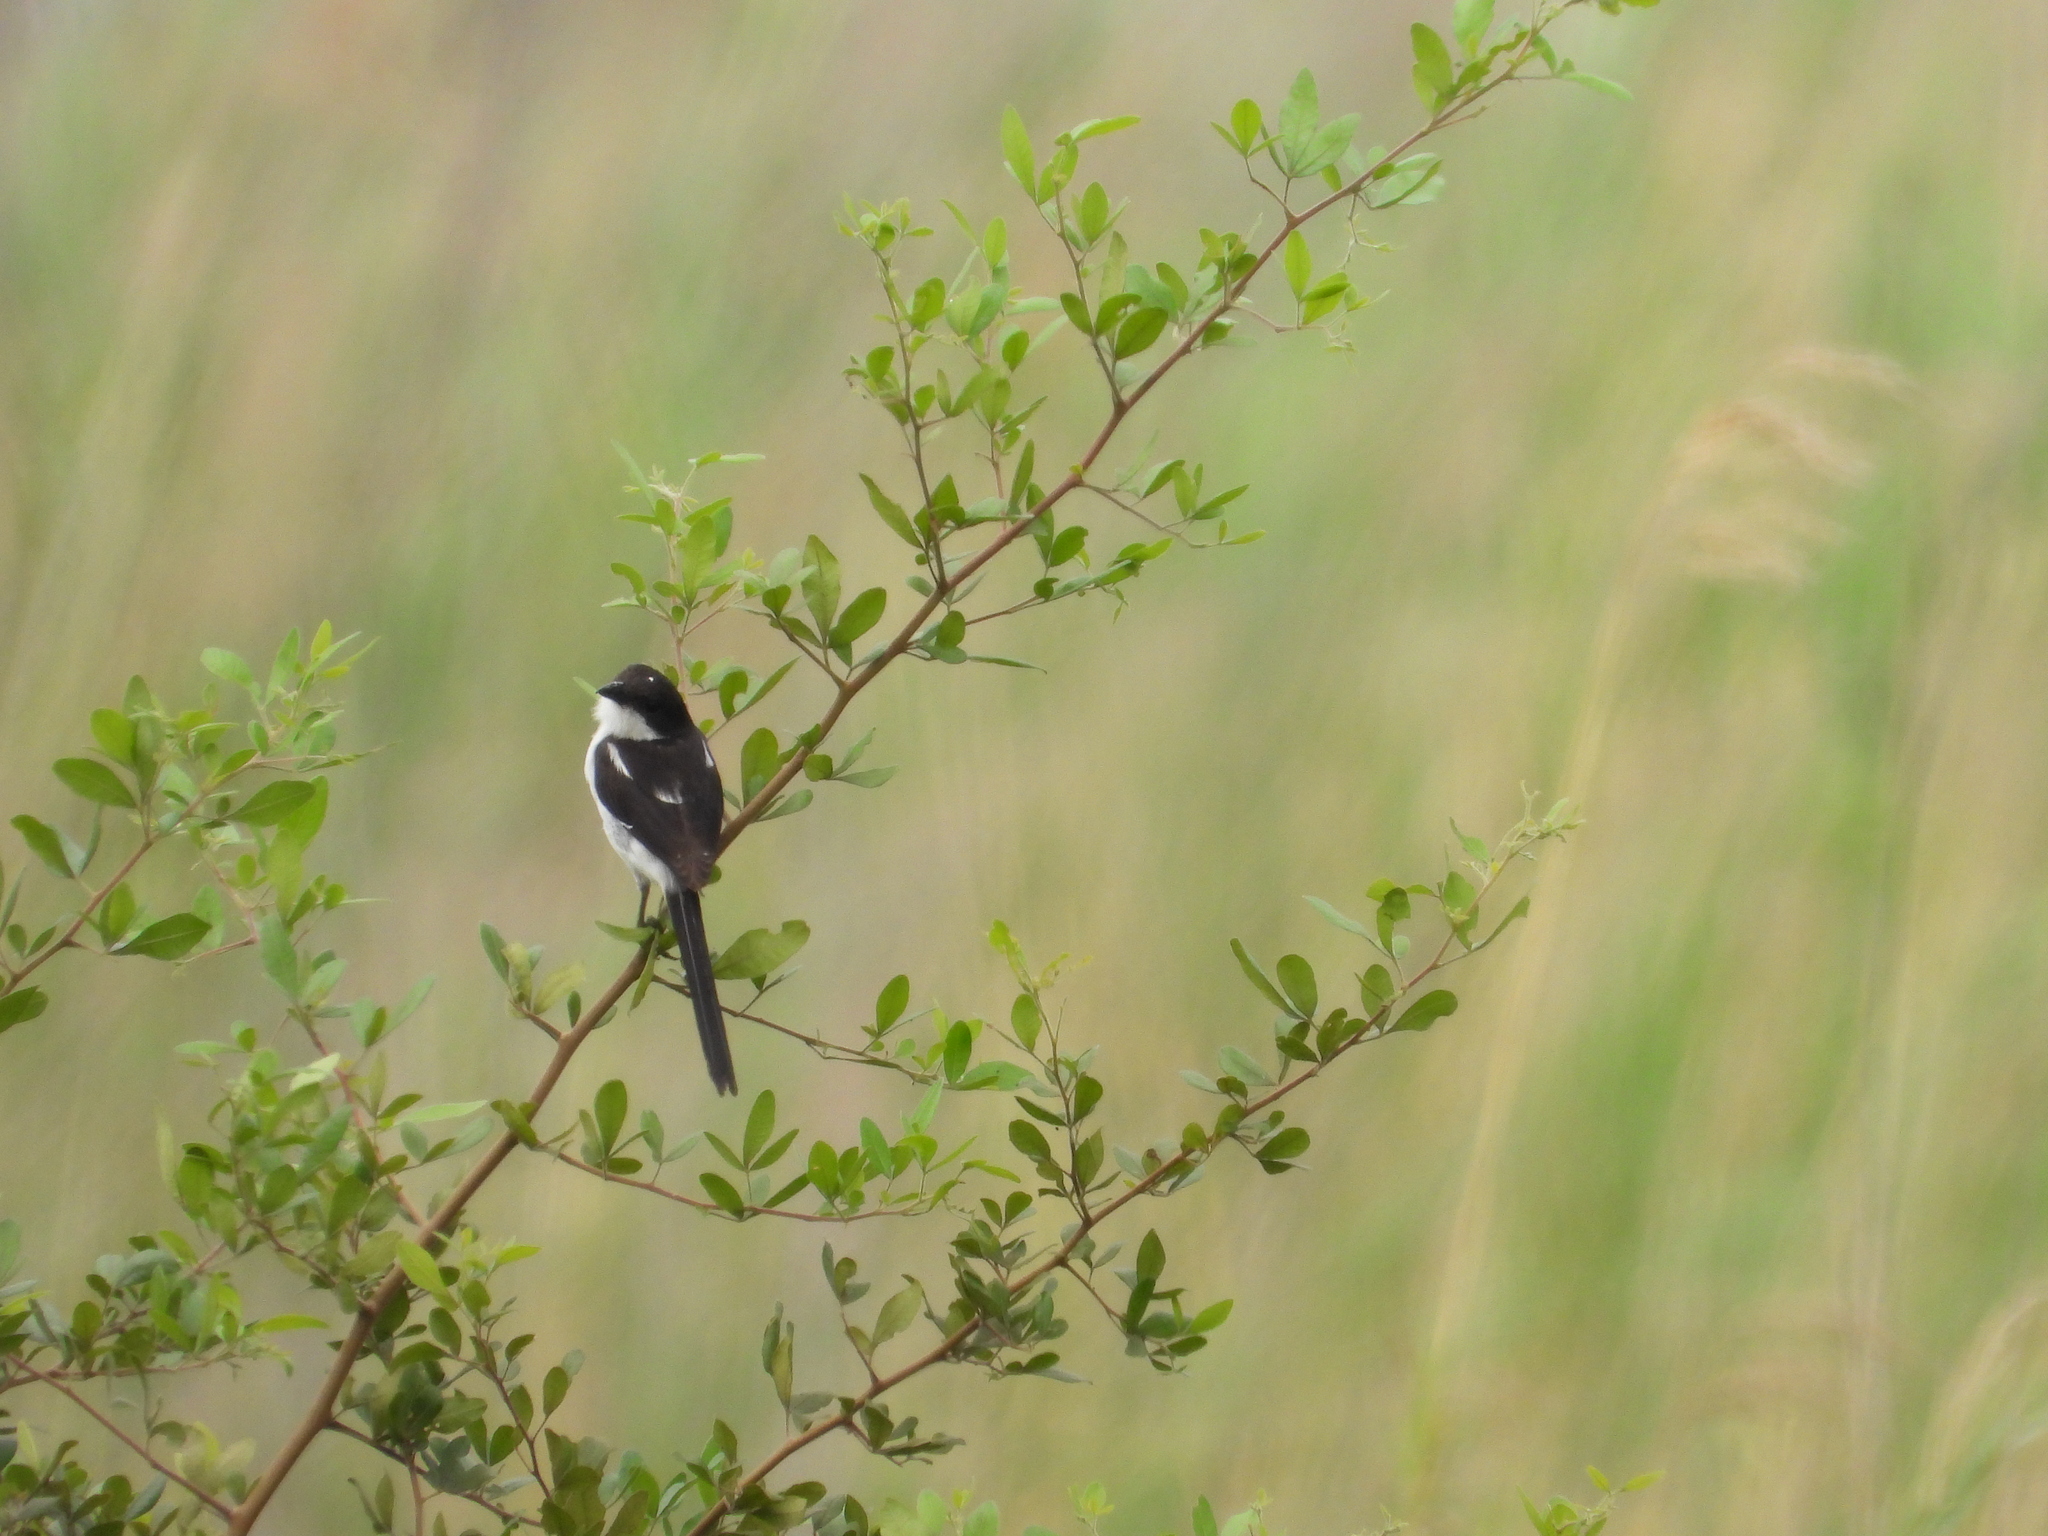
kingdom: Animalia
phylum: Chordata
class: Aves
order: Passeriformes
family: Laniidae
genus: Lanius
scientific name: Lanius humeralis
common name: Northern fiscal
